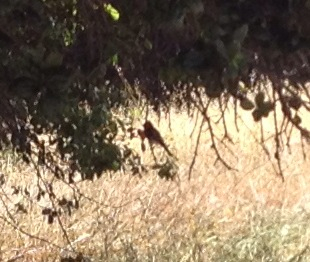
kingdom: Animalia
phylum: Chordata
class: Aves
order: Passeriformes
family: Tyrannidae
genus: Sayornis
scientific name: Sayornis nigricans
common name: Black phoebe
